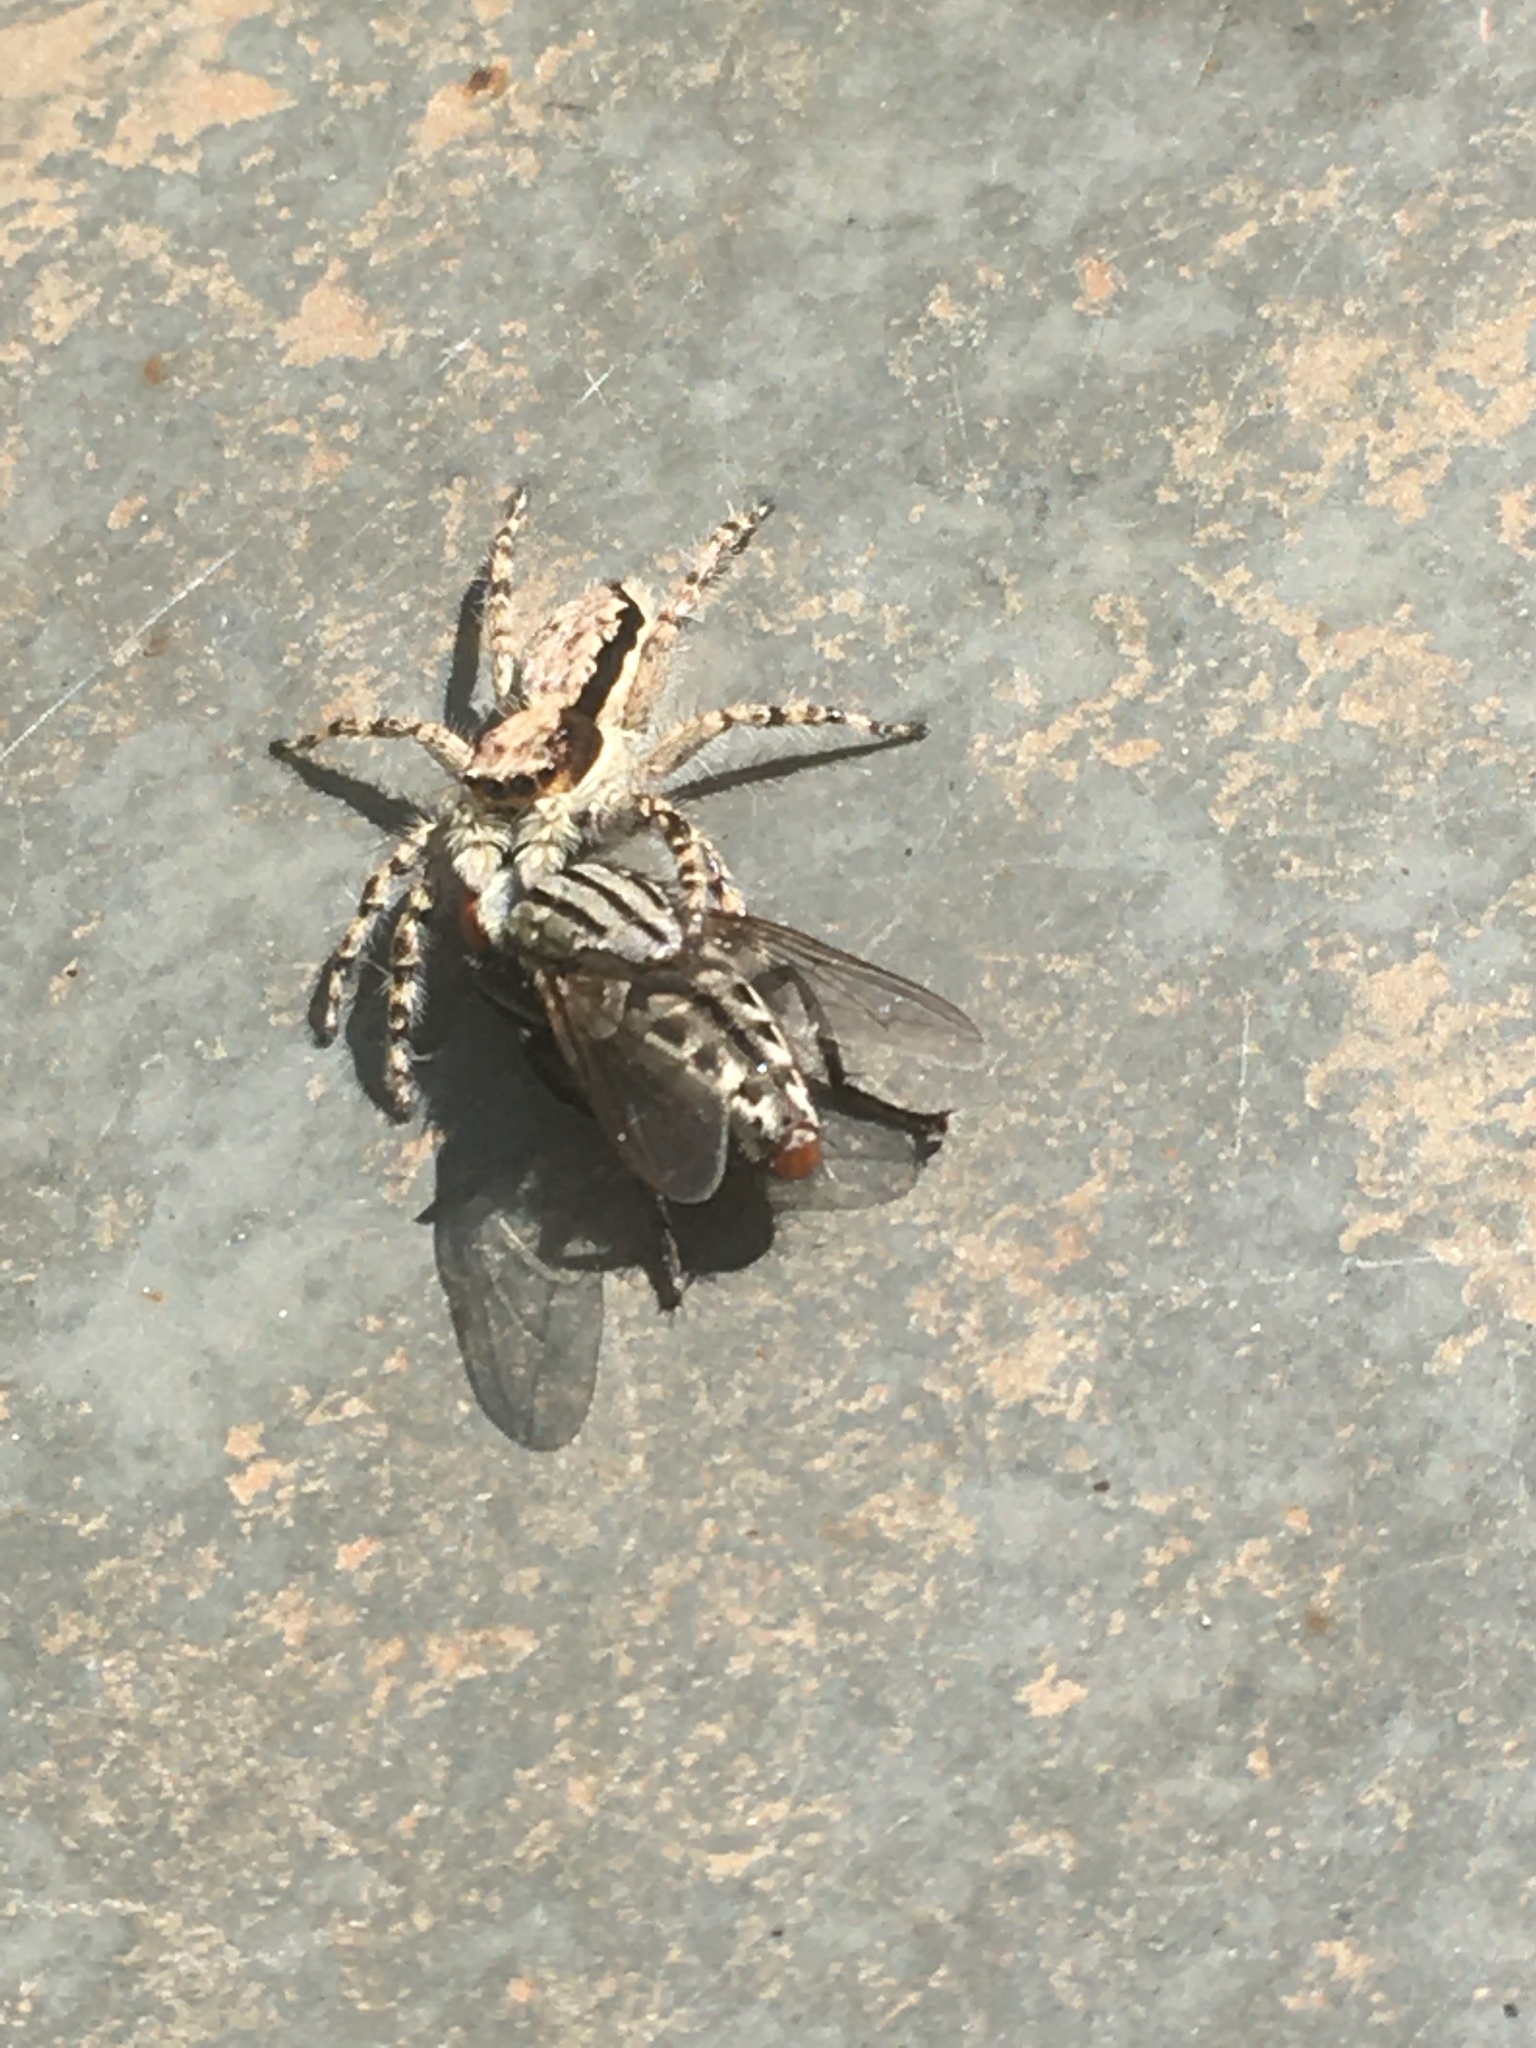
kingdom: Animalia
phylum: Arthropoda
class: Arachnida
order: Araneae
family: Salticidae
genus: Menemerus
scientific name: Menemerus bivittatus
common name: Gray wall jumper
